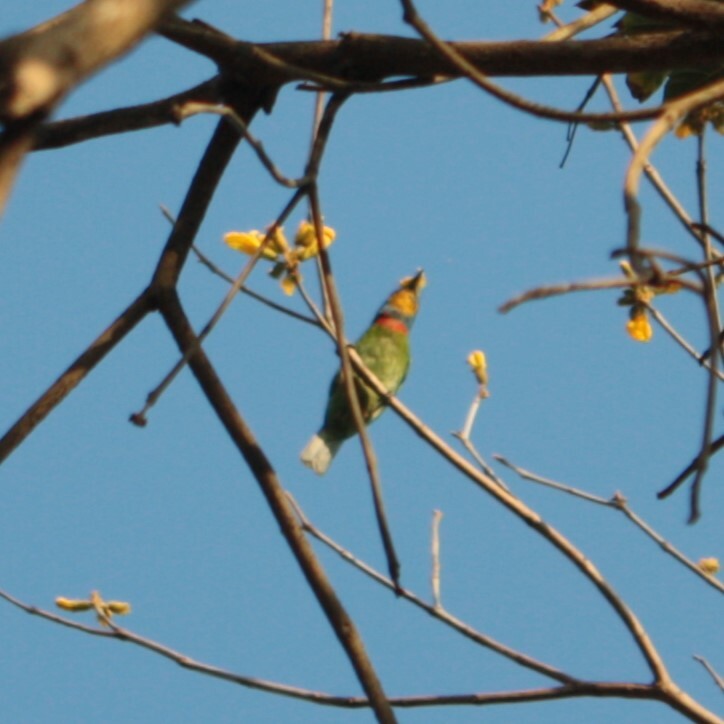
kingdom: Animalia
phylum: Chordata
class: Aves
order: Piciformes
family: Megalaimidae
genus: Psilopogon
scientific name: Psilopogon nuchalis
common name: Taiwan barbet
